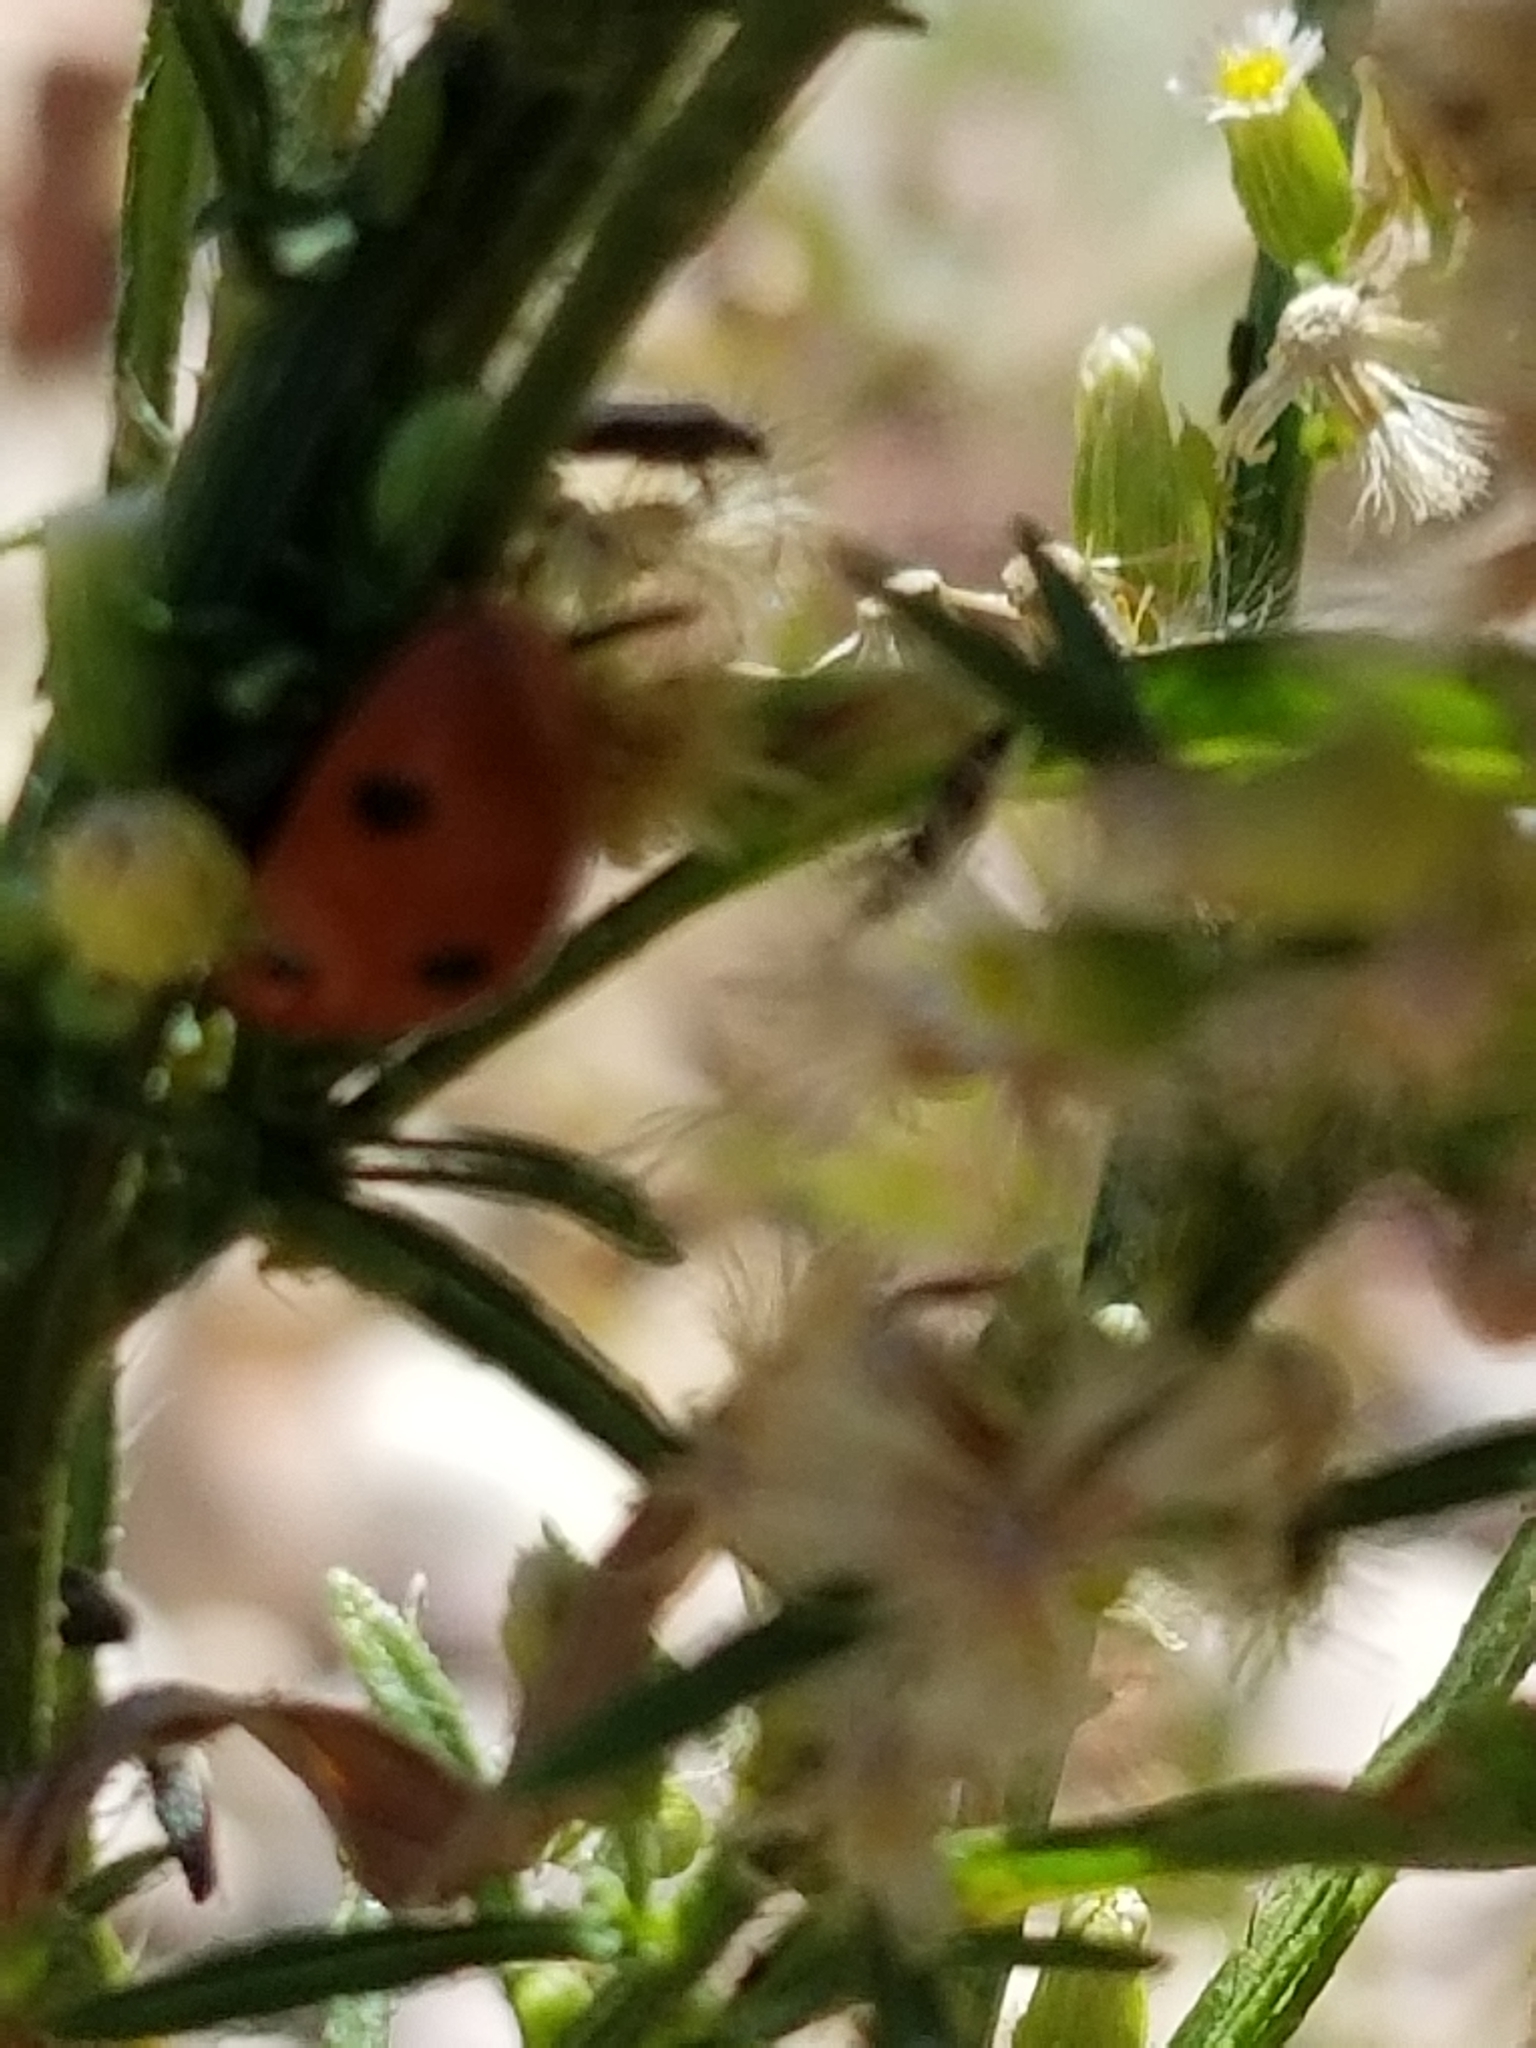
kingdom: Animalia
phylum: Arthropoda
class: Insecta
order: Coleoptera
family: Coccinellidae
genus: Coccinella
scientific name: Coccinella septempunctata
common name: Sevenspotted lady beetle
